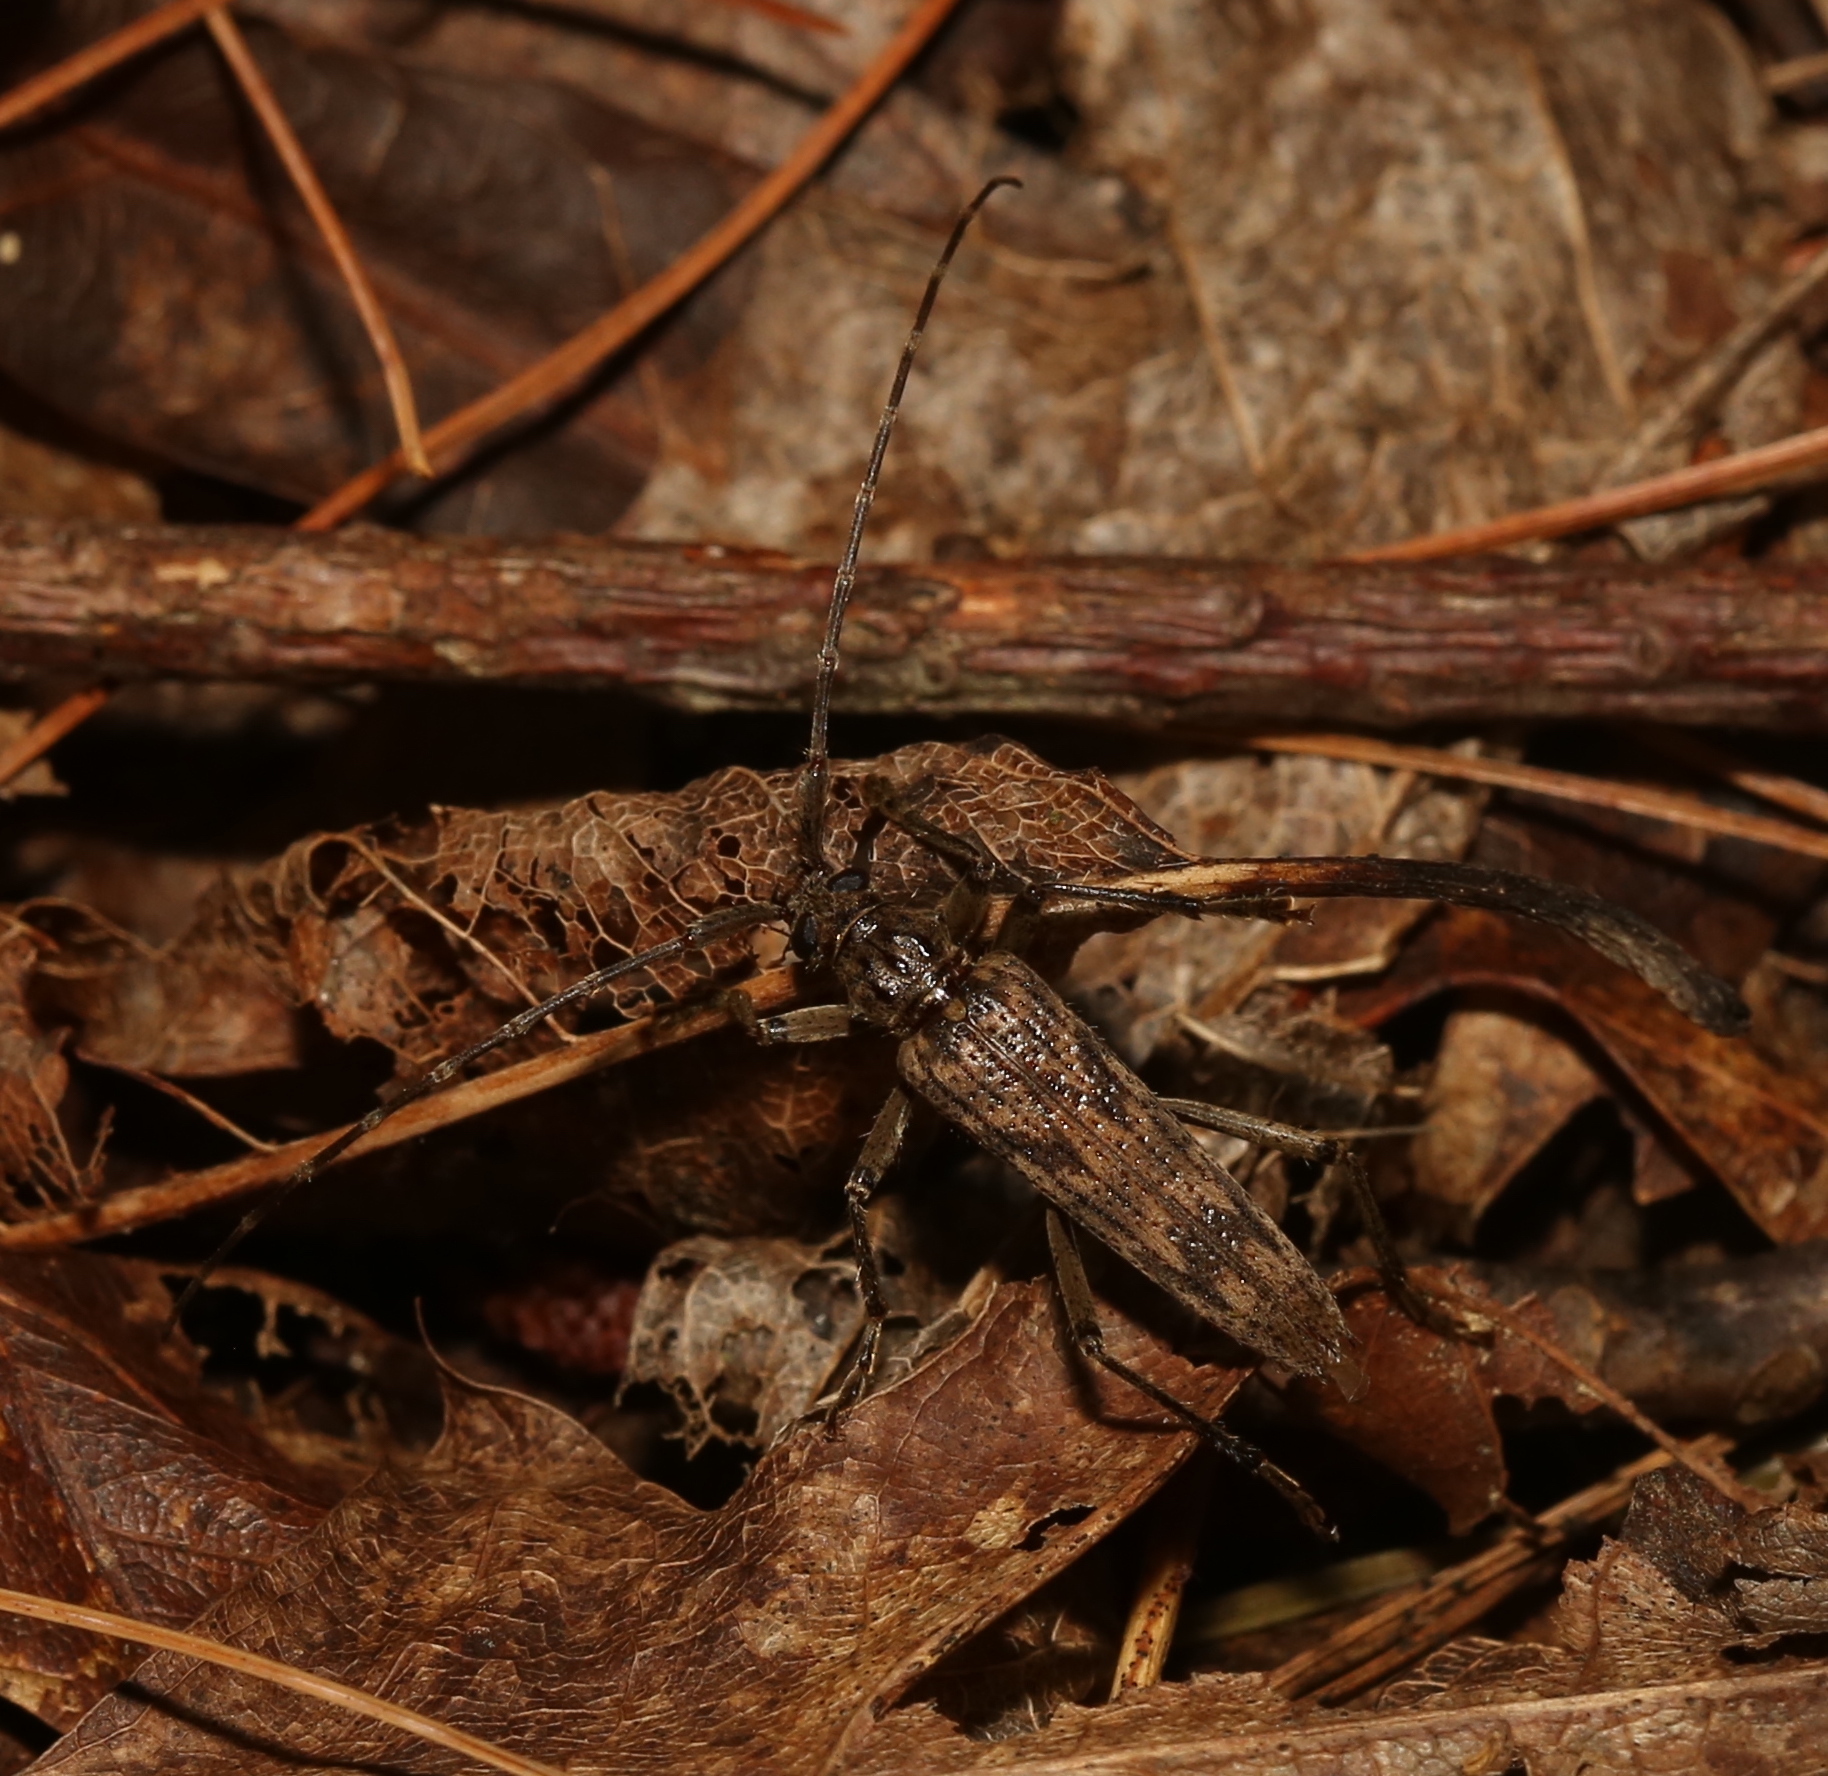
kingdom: Animalia
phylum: Arthropoda
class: Insecta
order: Coleoptera
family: Cerambycidae
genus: Elytrimitatrix
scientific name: Elytrimitatrix undata
